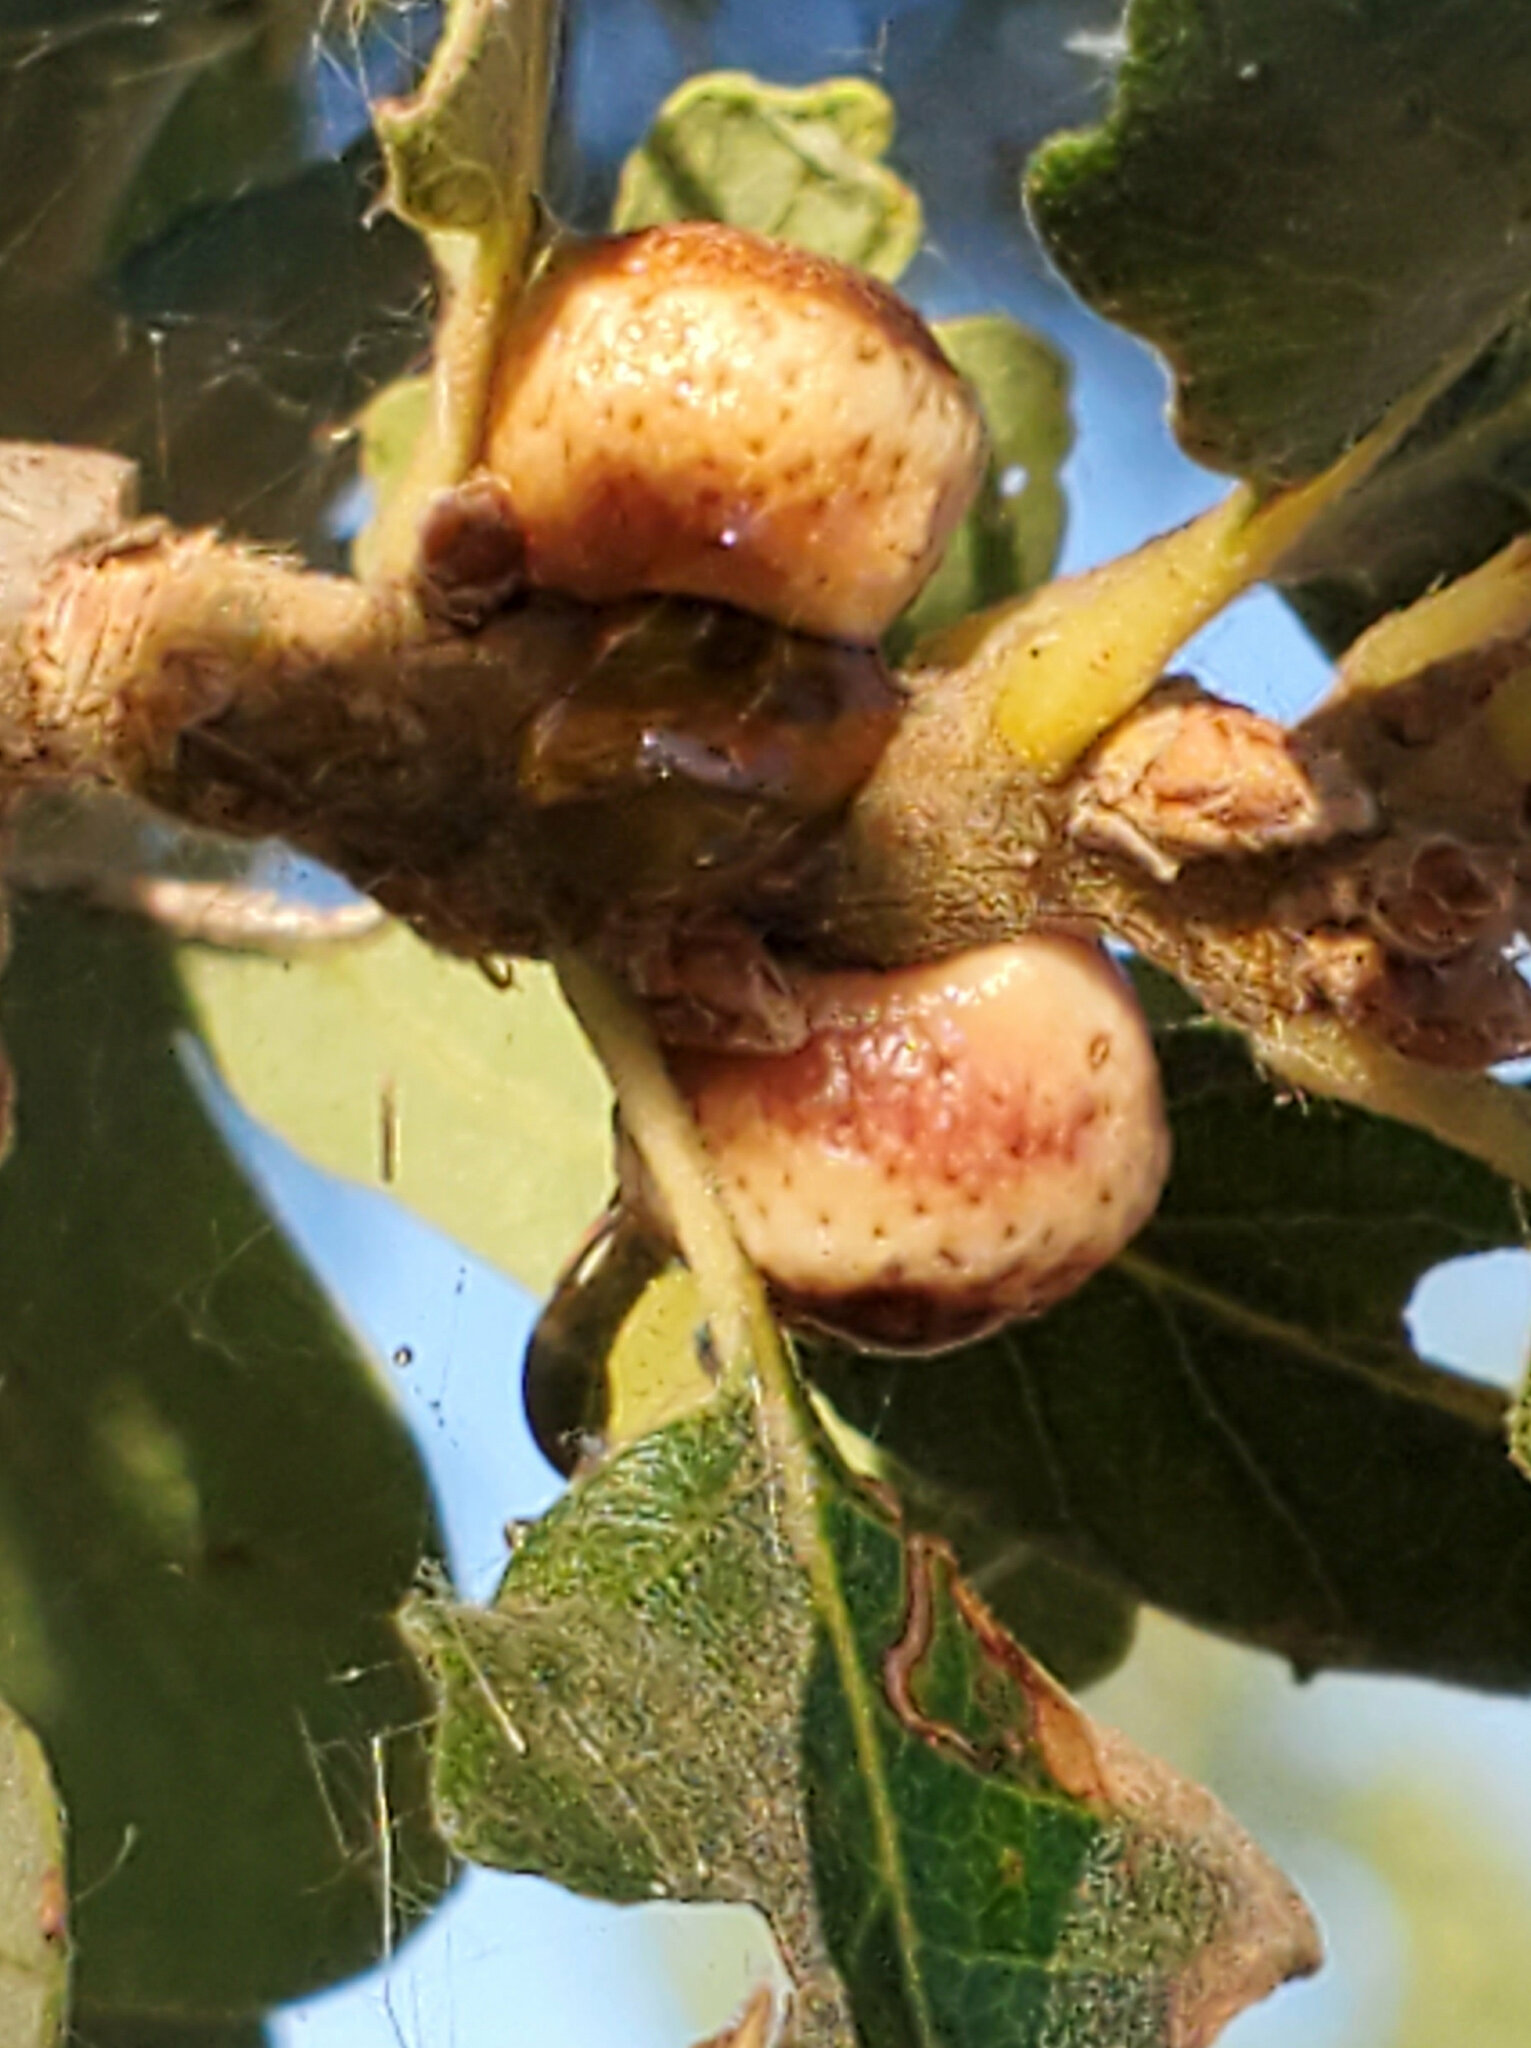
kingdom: Animalia
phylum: Arthropoda
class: Insecta
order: Hymenoptera
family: Cynipidae
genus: Disholcaspis
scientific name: Disholcaspis
